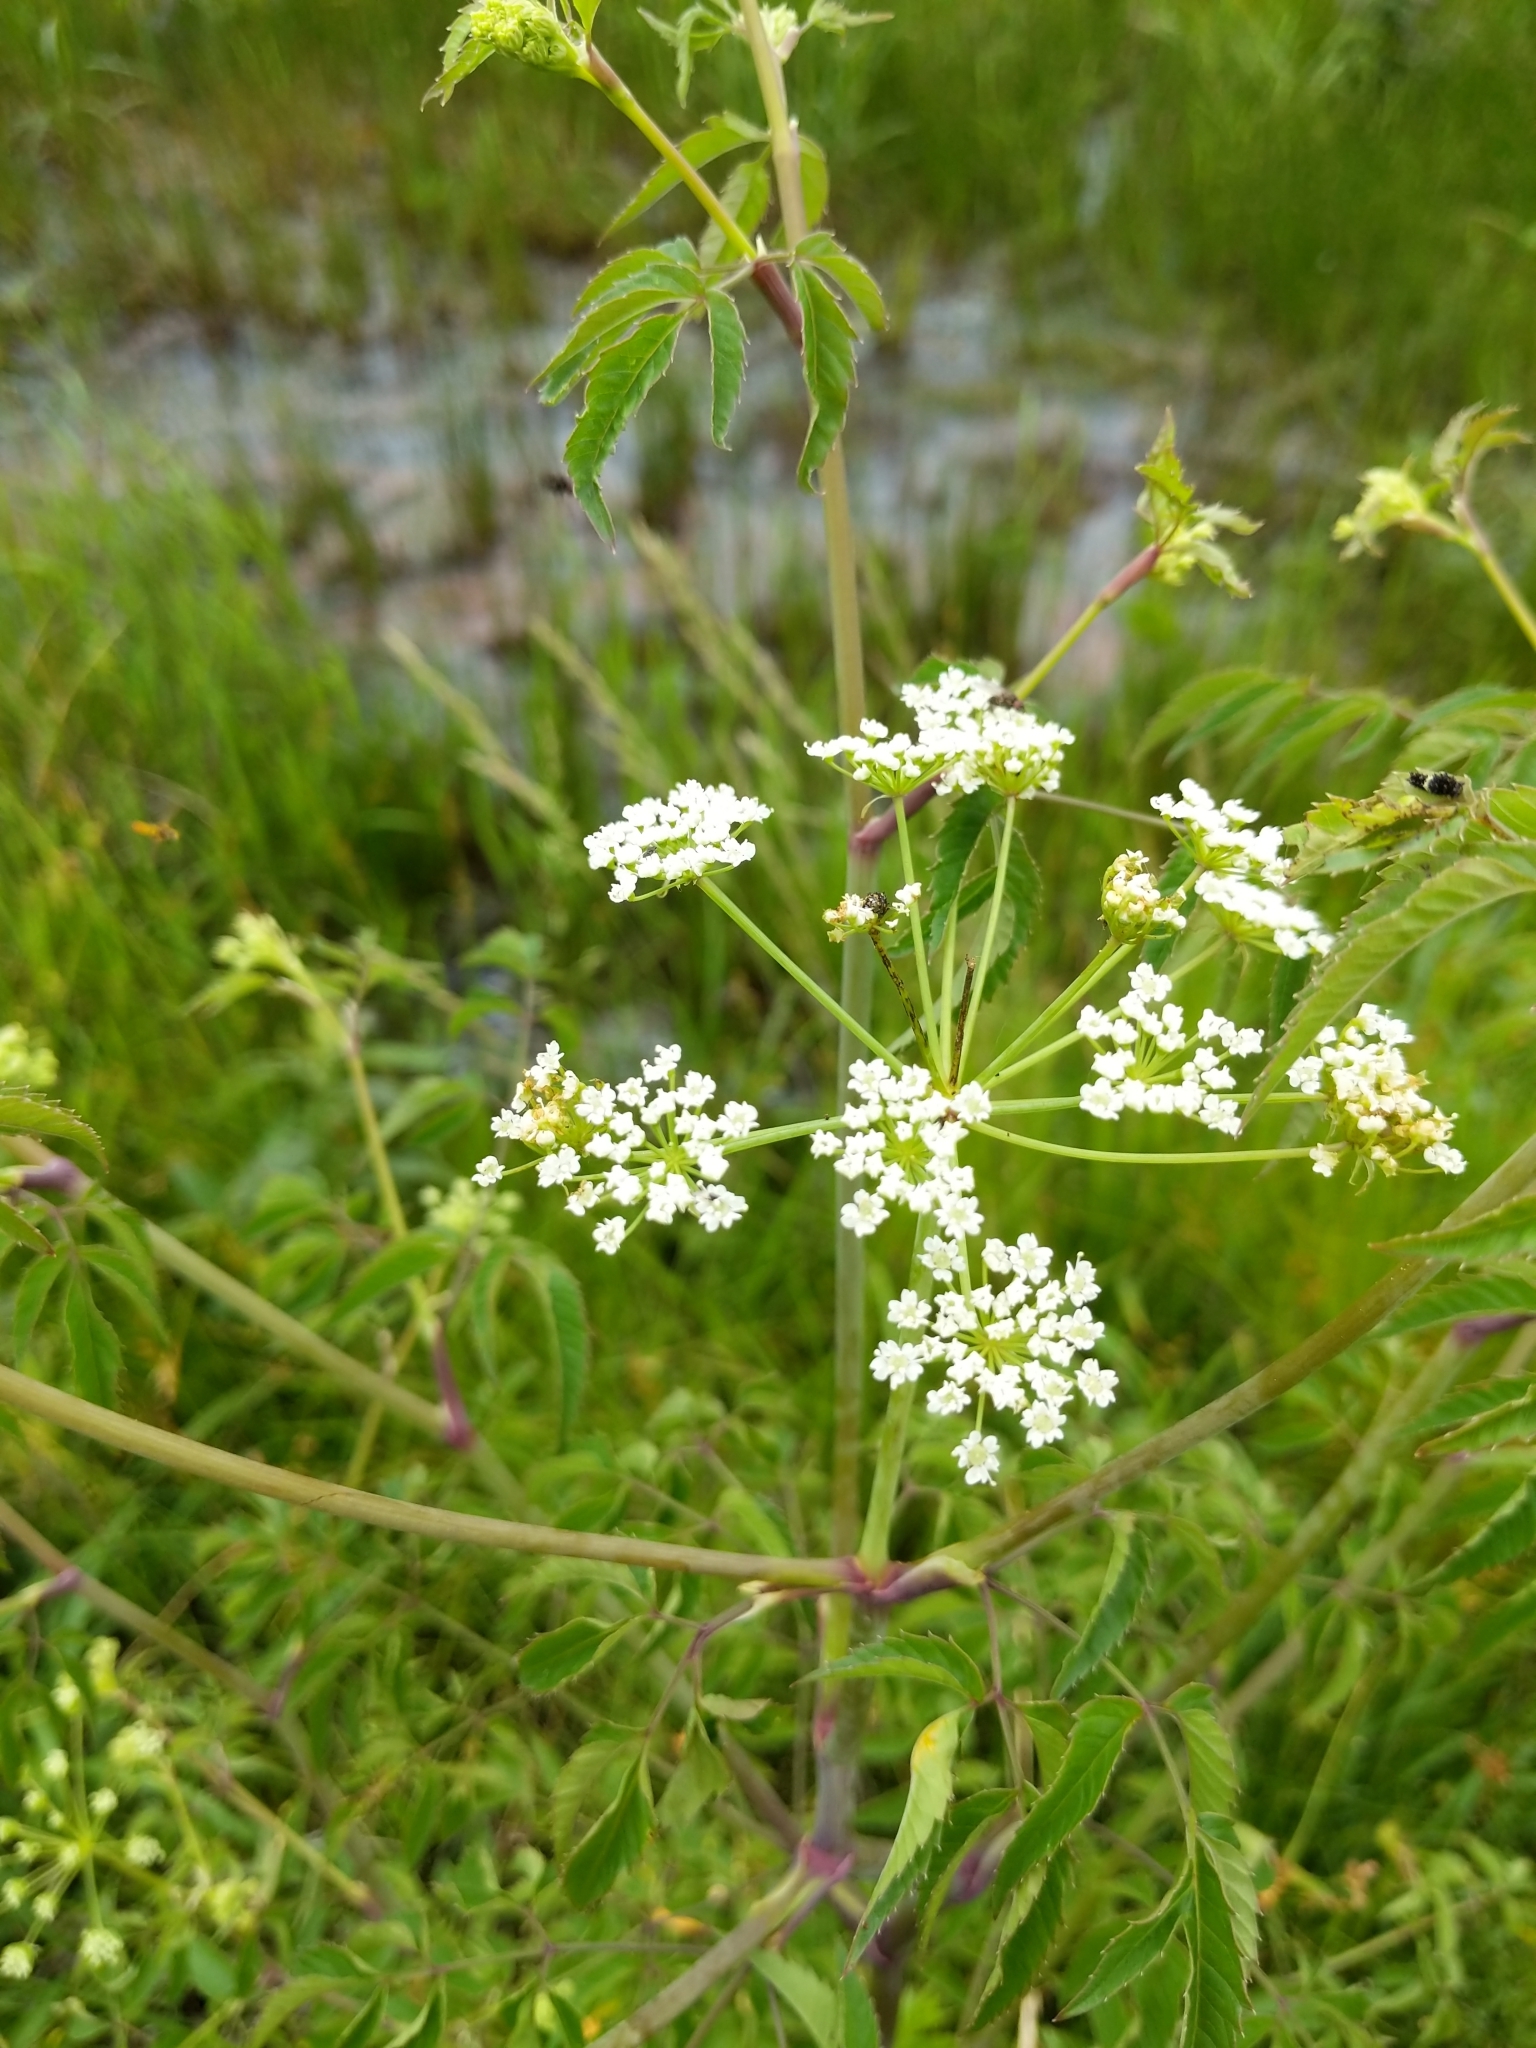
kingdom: Plantae
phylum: Tracheophyta
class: Magnoliopsida
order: Apiales
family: Apiaceae
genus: Cicuta
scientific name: Cicuta maculata
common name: Spotted cowbane
